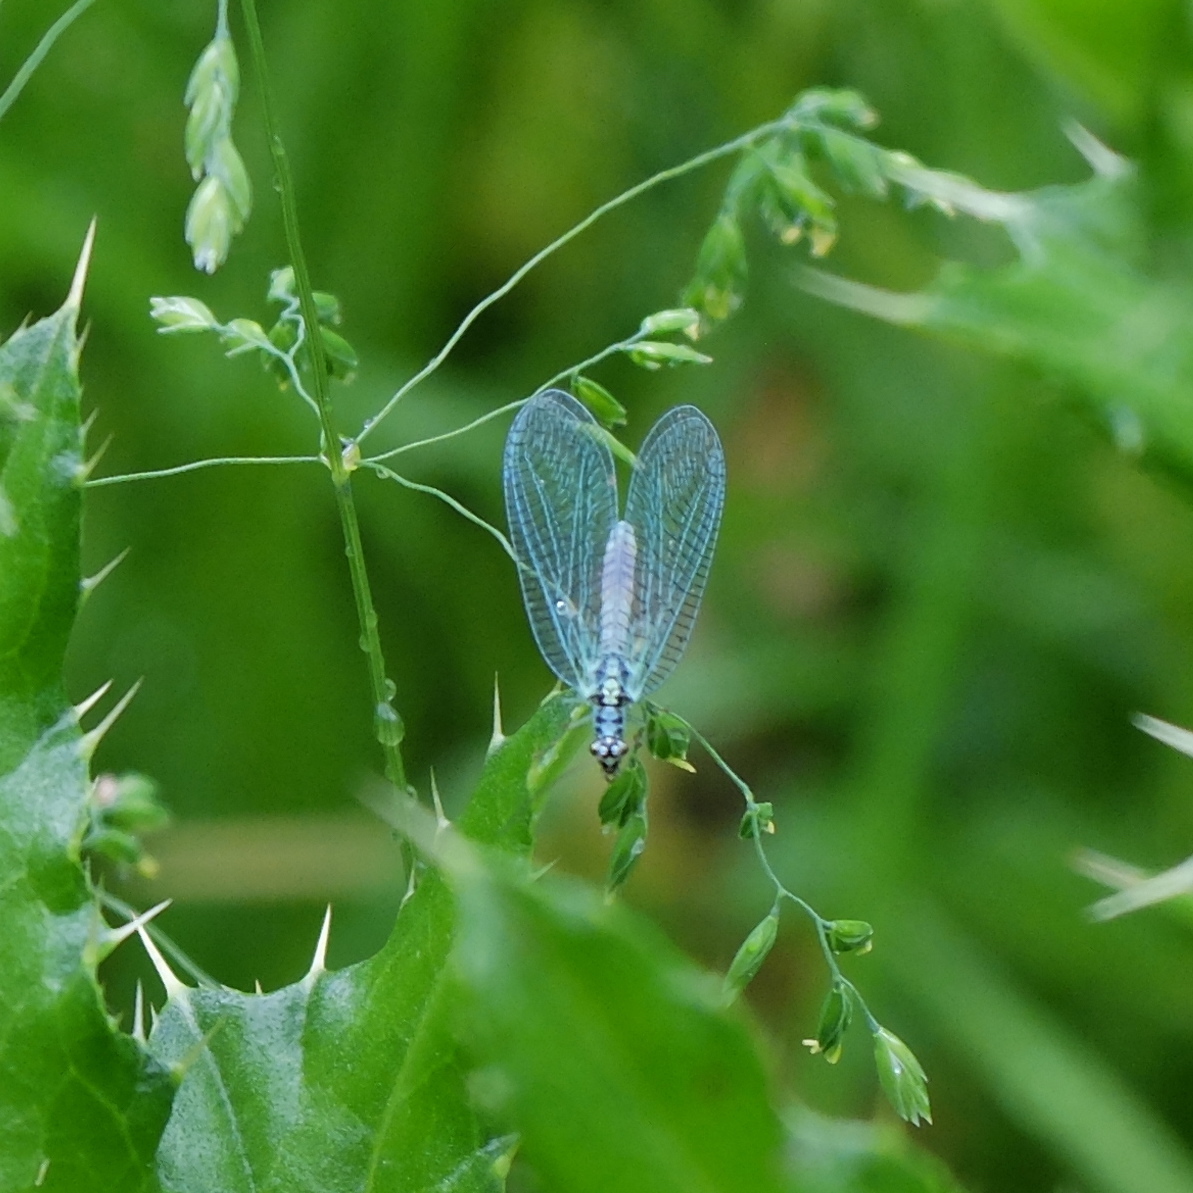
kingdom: Animalia
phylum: Arthropoda
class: Insecta
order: Neuroptera
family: Chrysopidae
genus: Chrysopa
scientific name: Chrysopa perla
